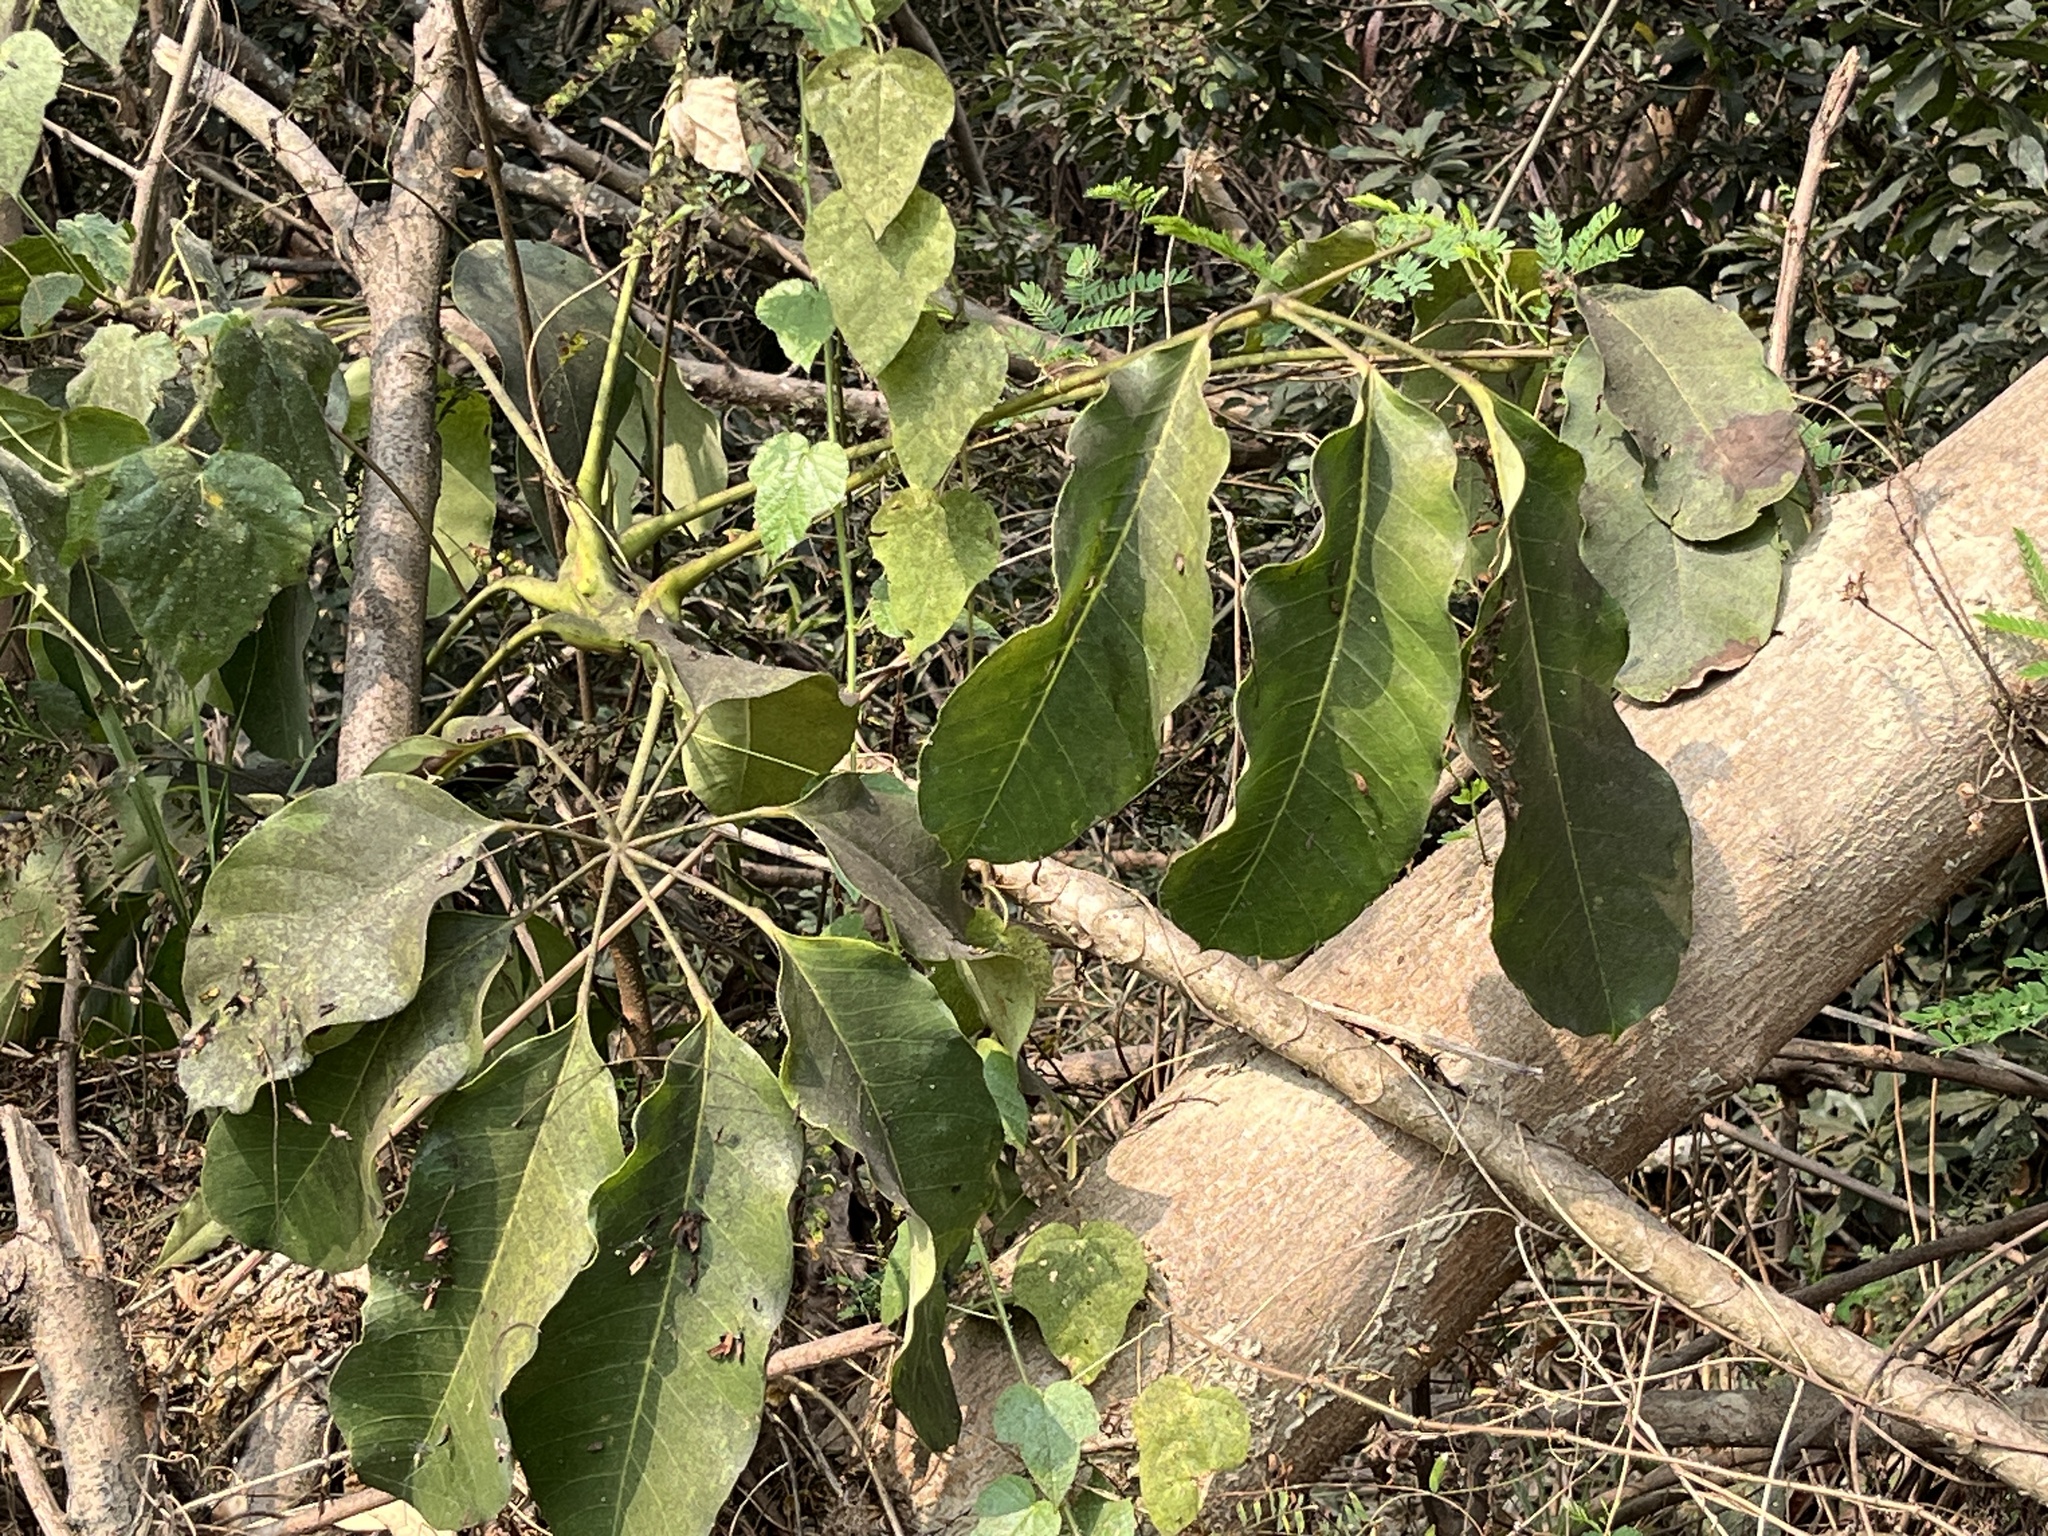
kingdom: Plantae
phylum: Tracheophyta
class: Magnoliopsida
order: Apiales
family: Araliaceae
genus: Heptapleurum
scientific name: Heptapleurum heptaphyllum
